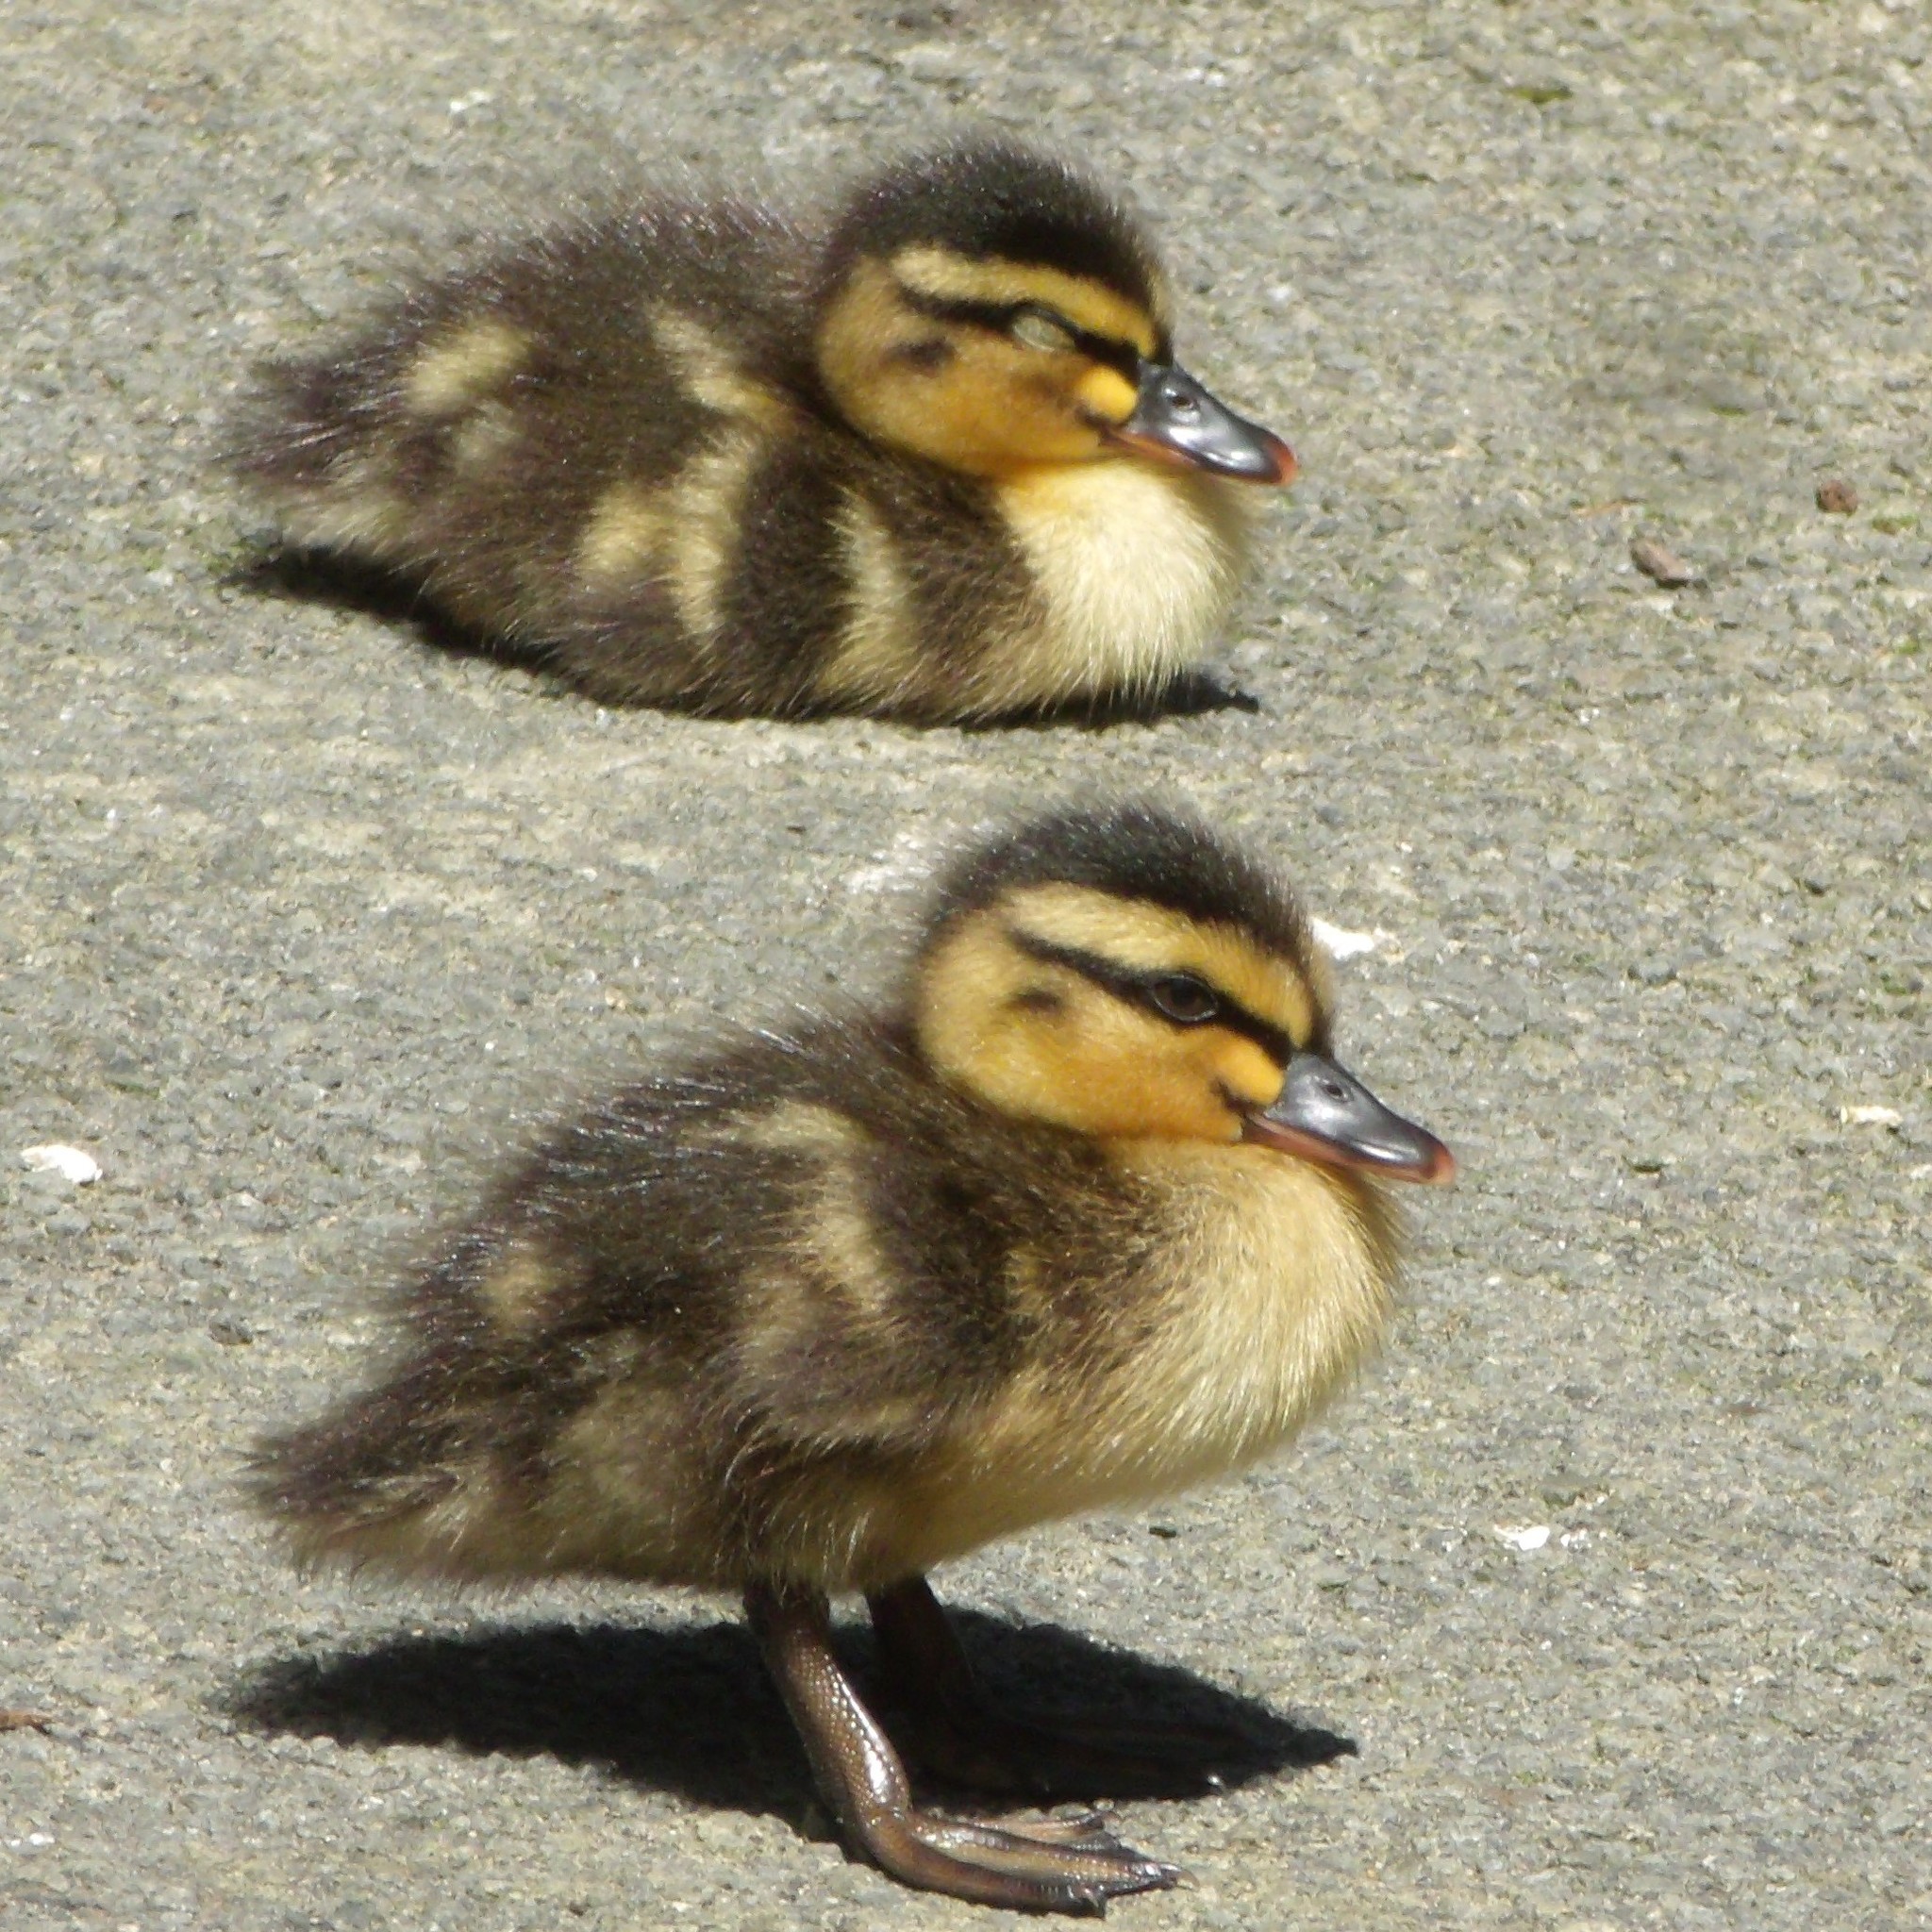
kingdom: Animalia
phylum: Chordata
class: Aves
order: Anseriformes
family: Anatidae
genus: Anas
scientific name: Anas platyrhynchos
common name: Mallard
